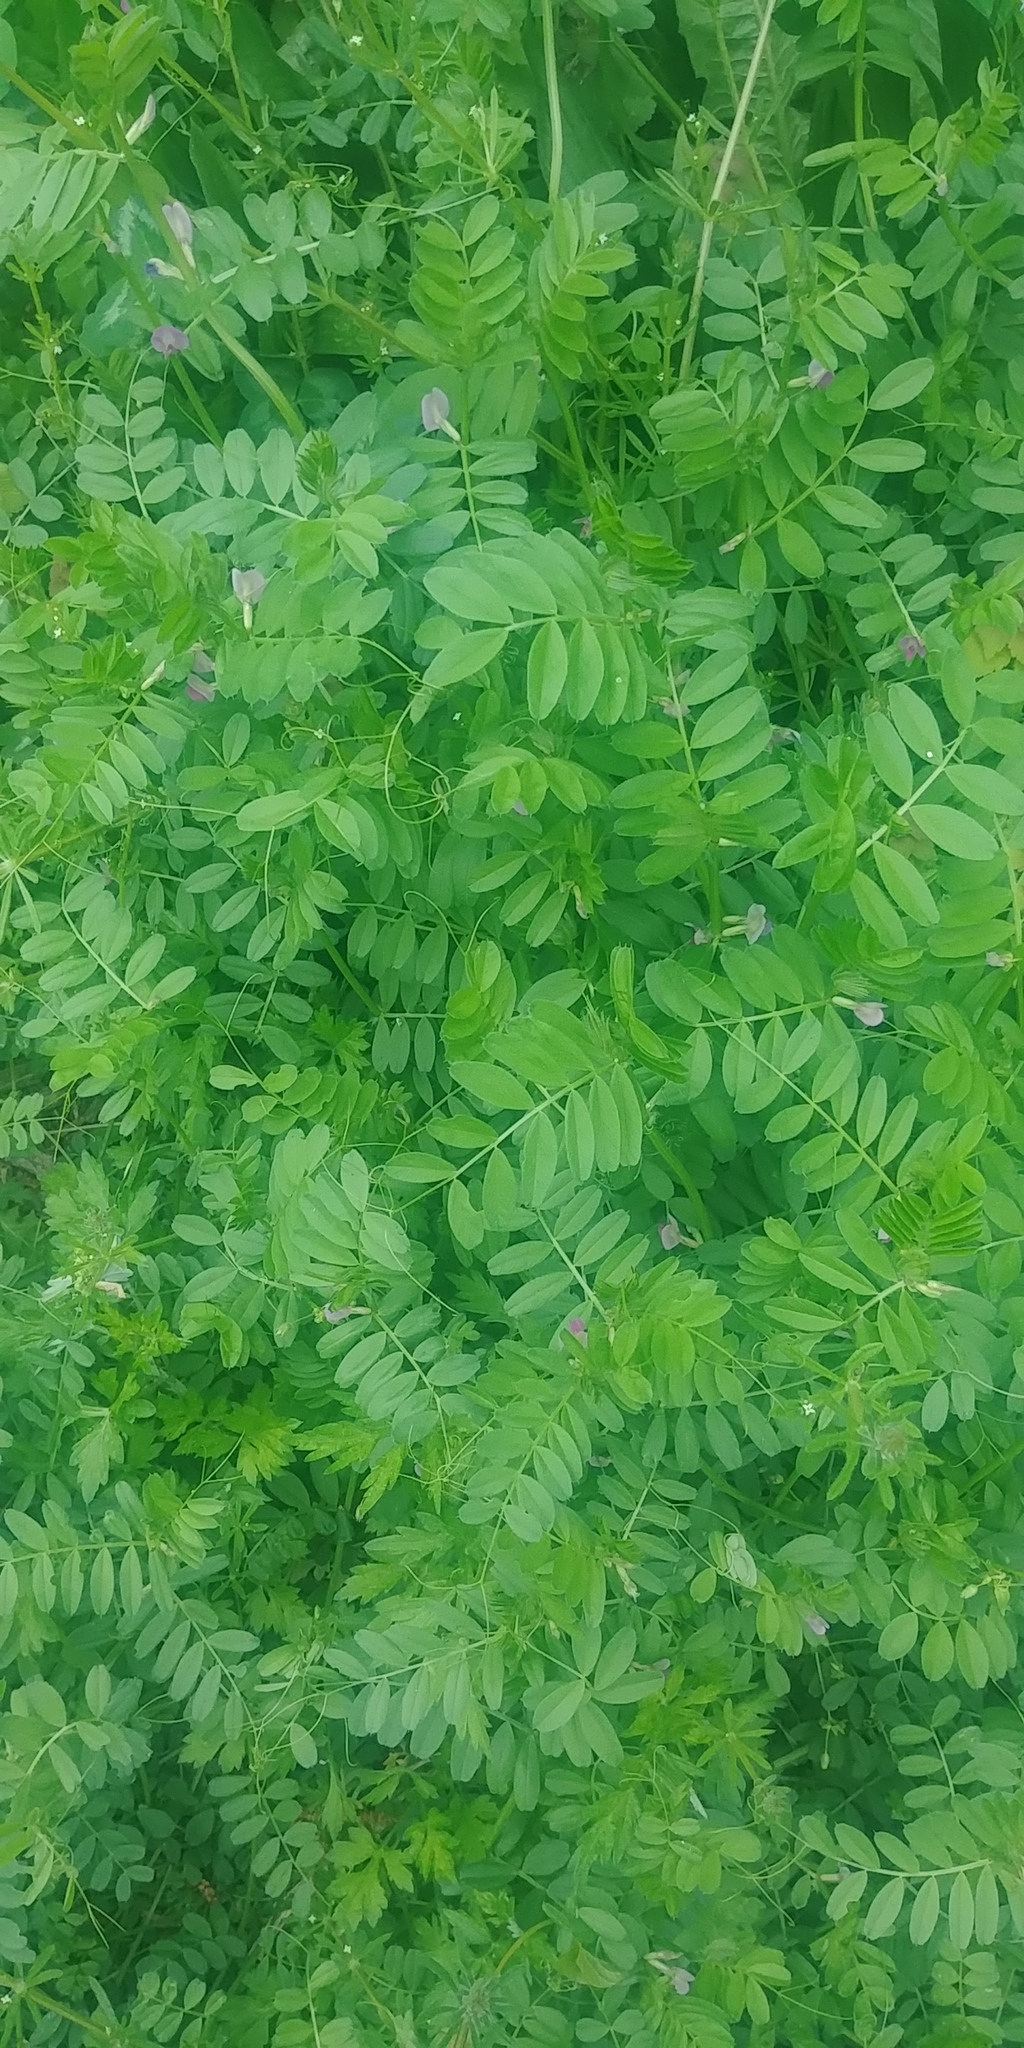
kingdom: Plantae
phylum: Tracheophyta
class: Magnoliopsida
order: Fabales
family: Fabaceae
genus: Vicia
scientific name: Vicia sativa
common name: Garden vetch
